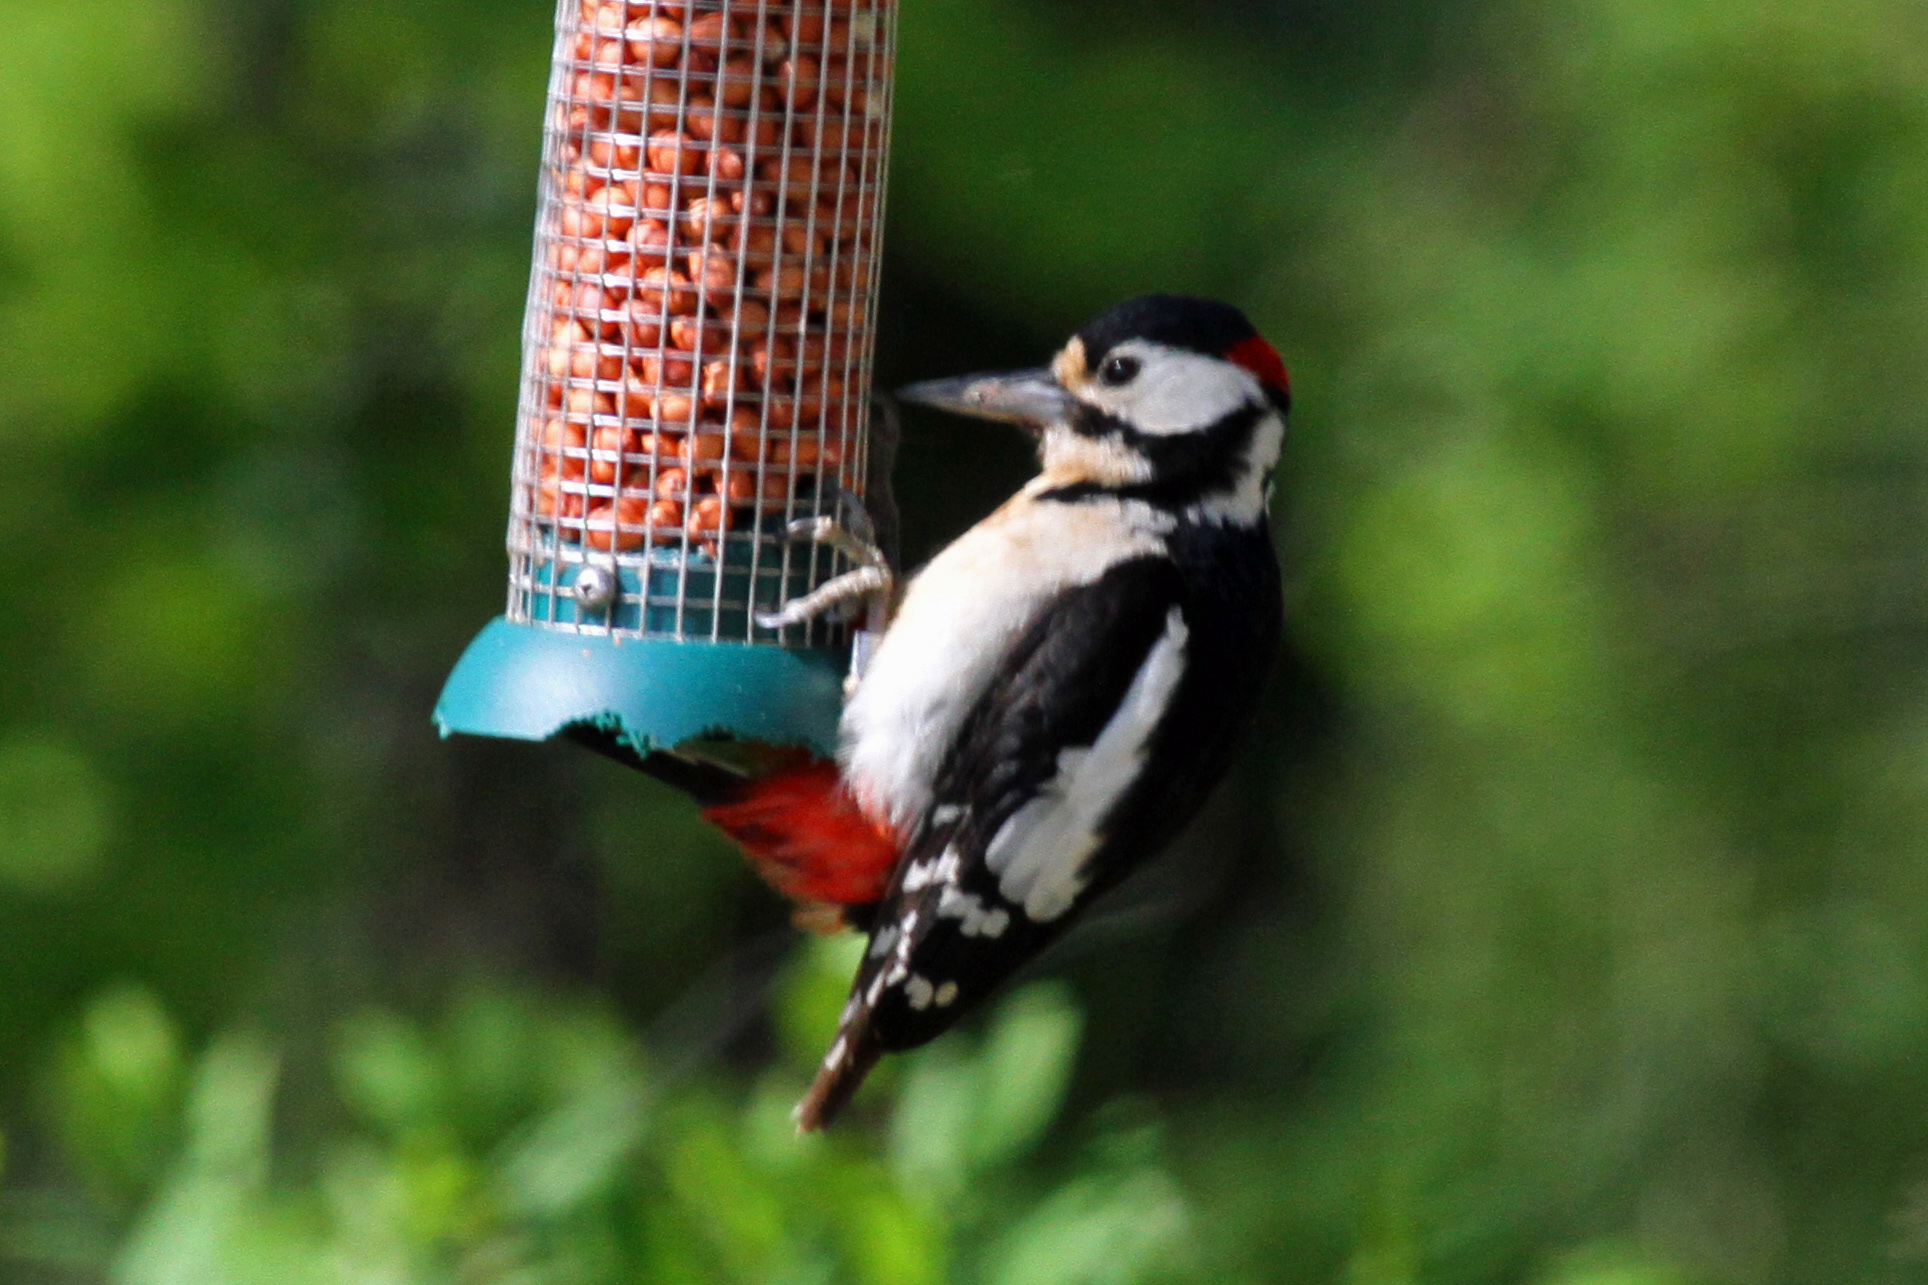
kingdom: Animalia
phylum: Chordata
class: Aves
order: Piciformes
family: Picidae
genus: Dendrocopos
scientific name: Dendrocopos major
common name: Great spotted woodpecker
